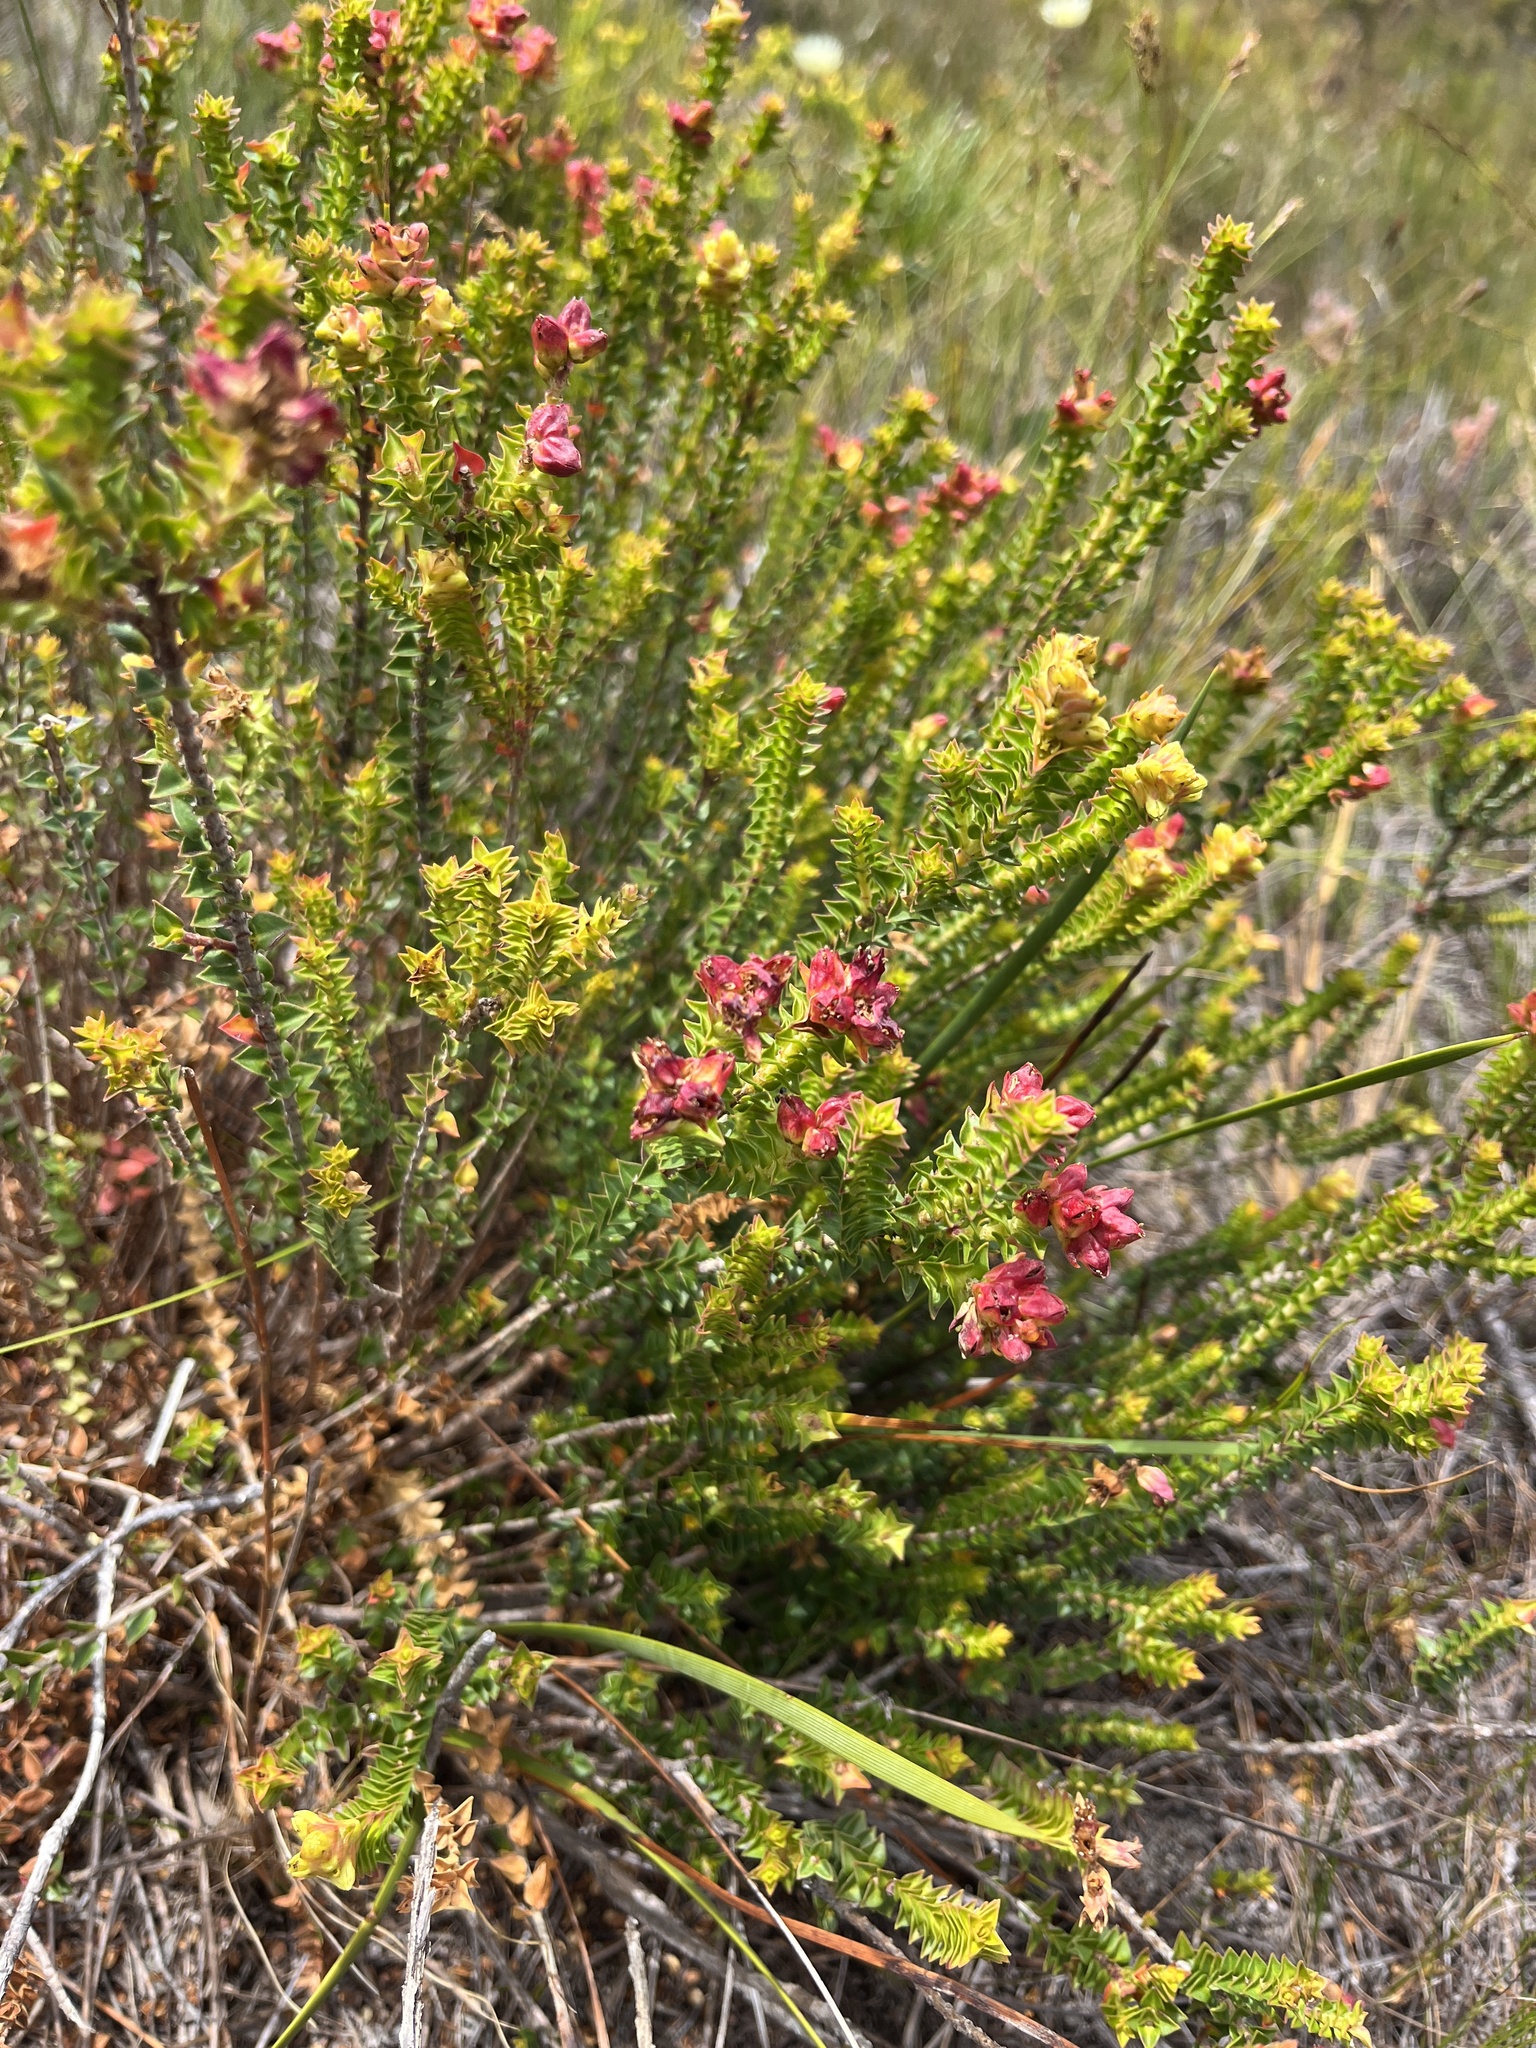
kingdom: Plantae
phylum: Tracheophyta
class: Magnoliopsida
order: Myrtales
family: Penaeaceae
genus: Penaea
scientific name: Penaea mucronata
